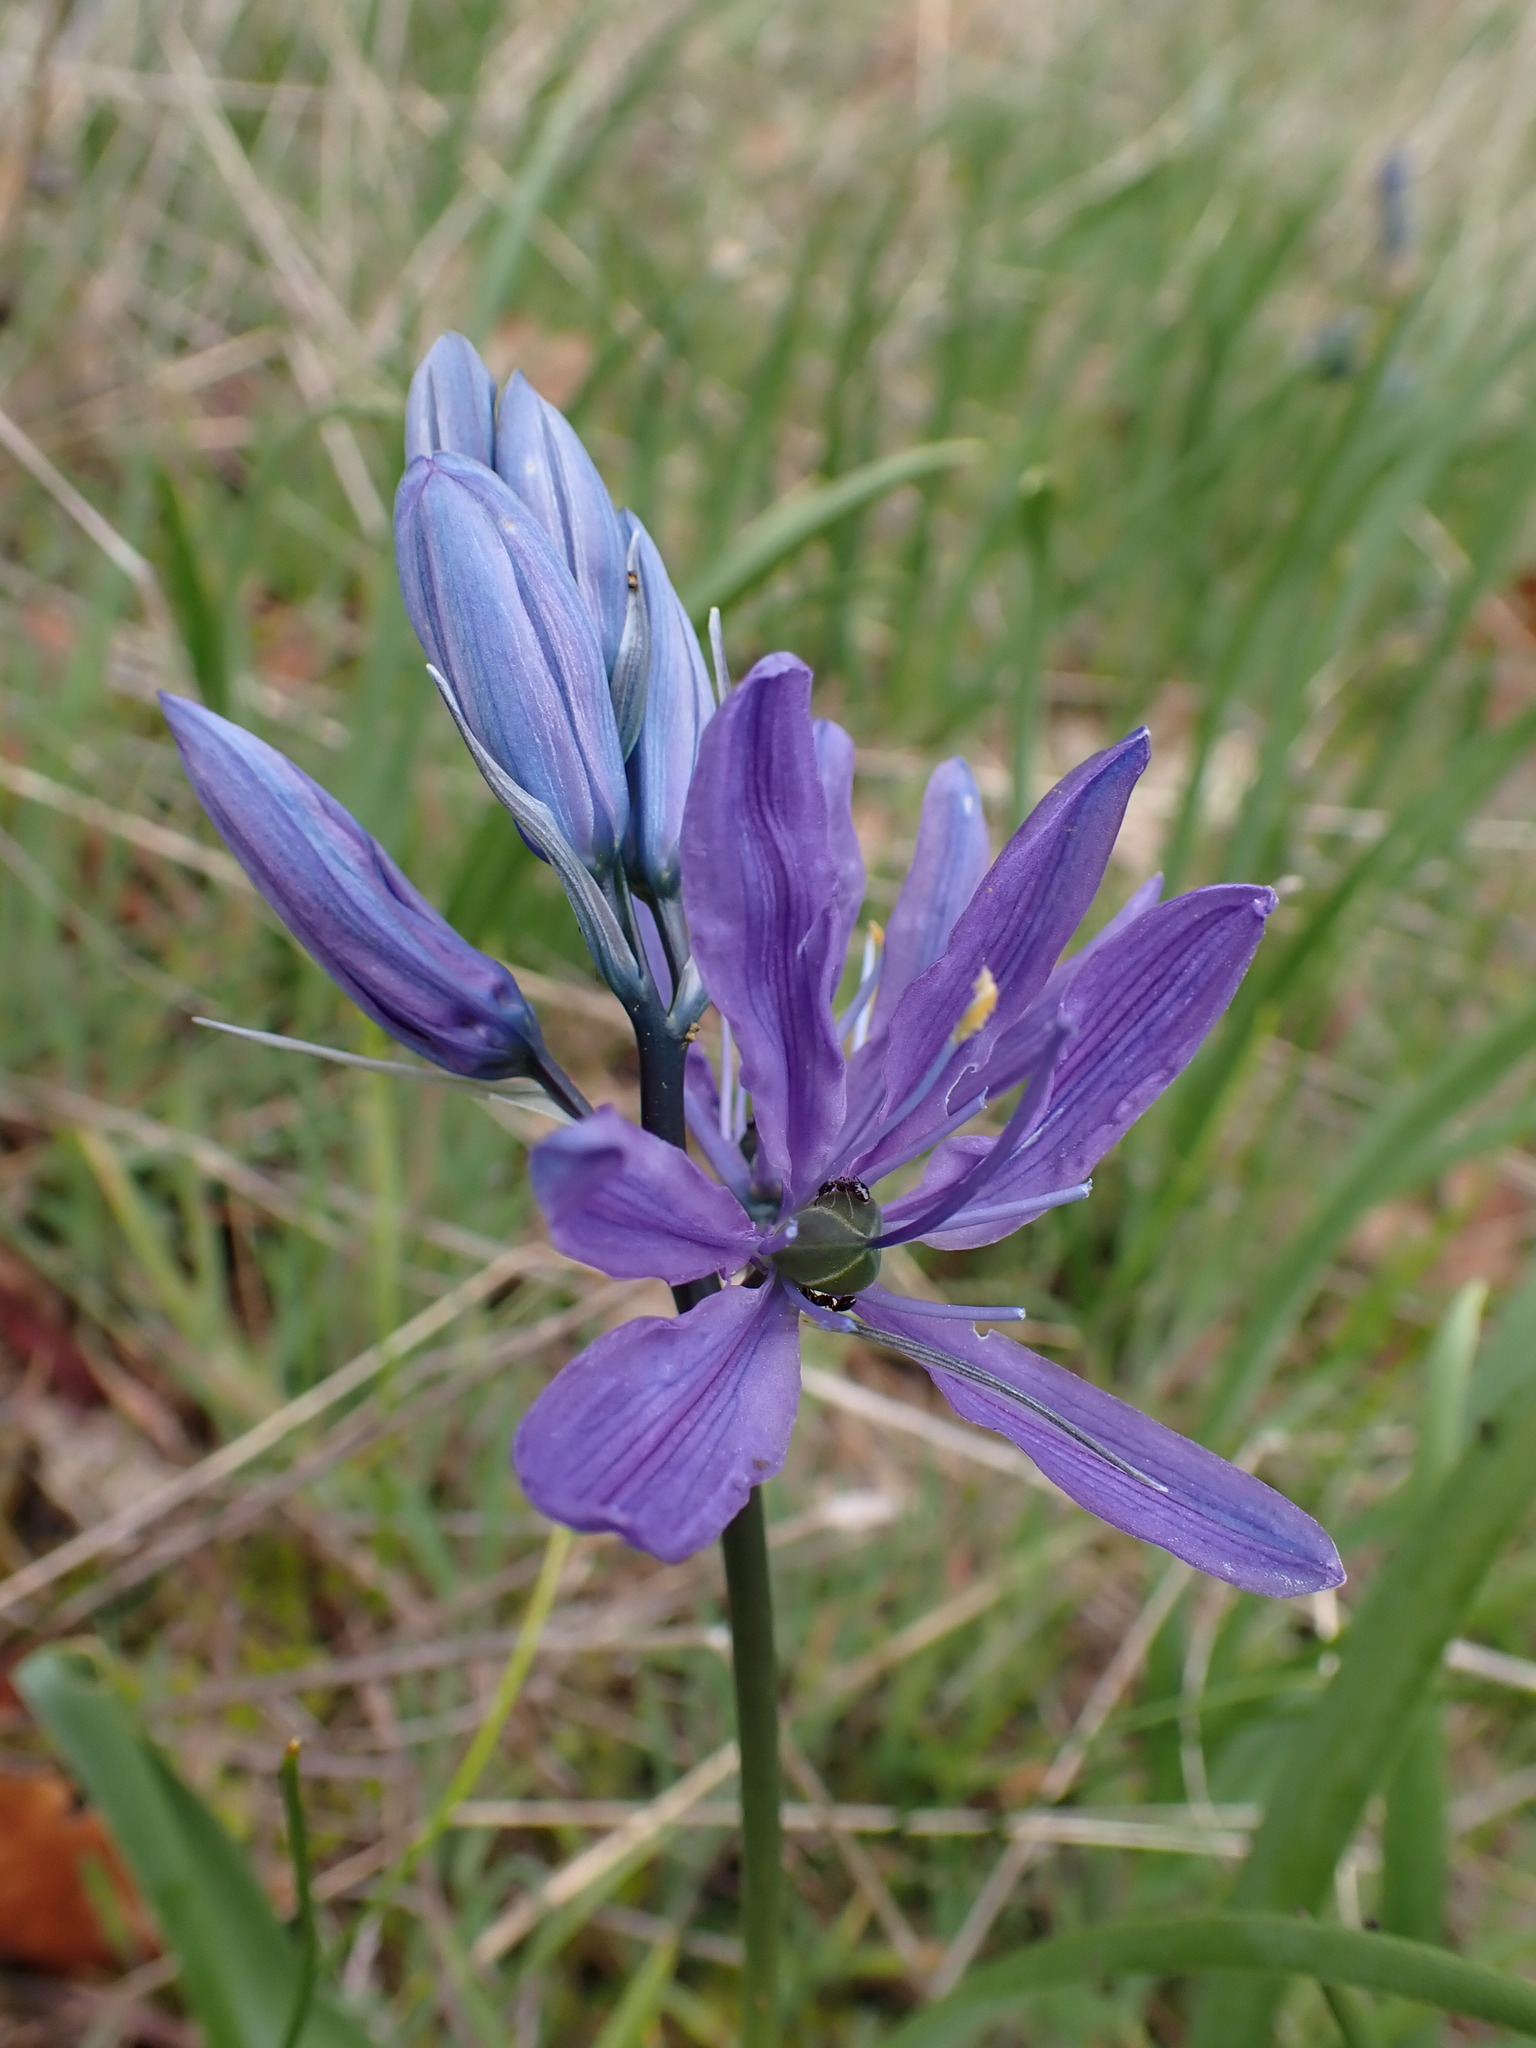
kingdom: Plantae
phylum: Tracheophyta
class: Liliopsida
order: Asparagales
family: Asparagaceae
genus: Camassia
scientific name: Camassia quamash
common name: Common camas
